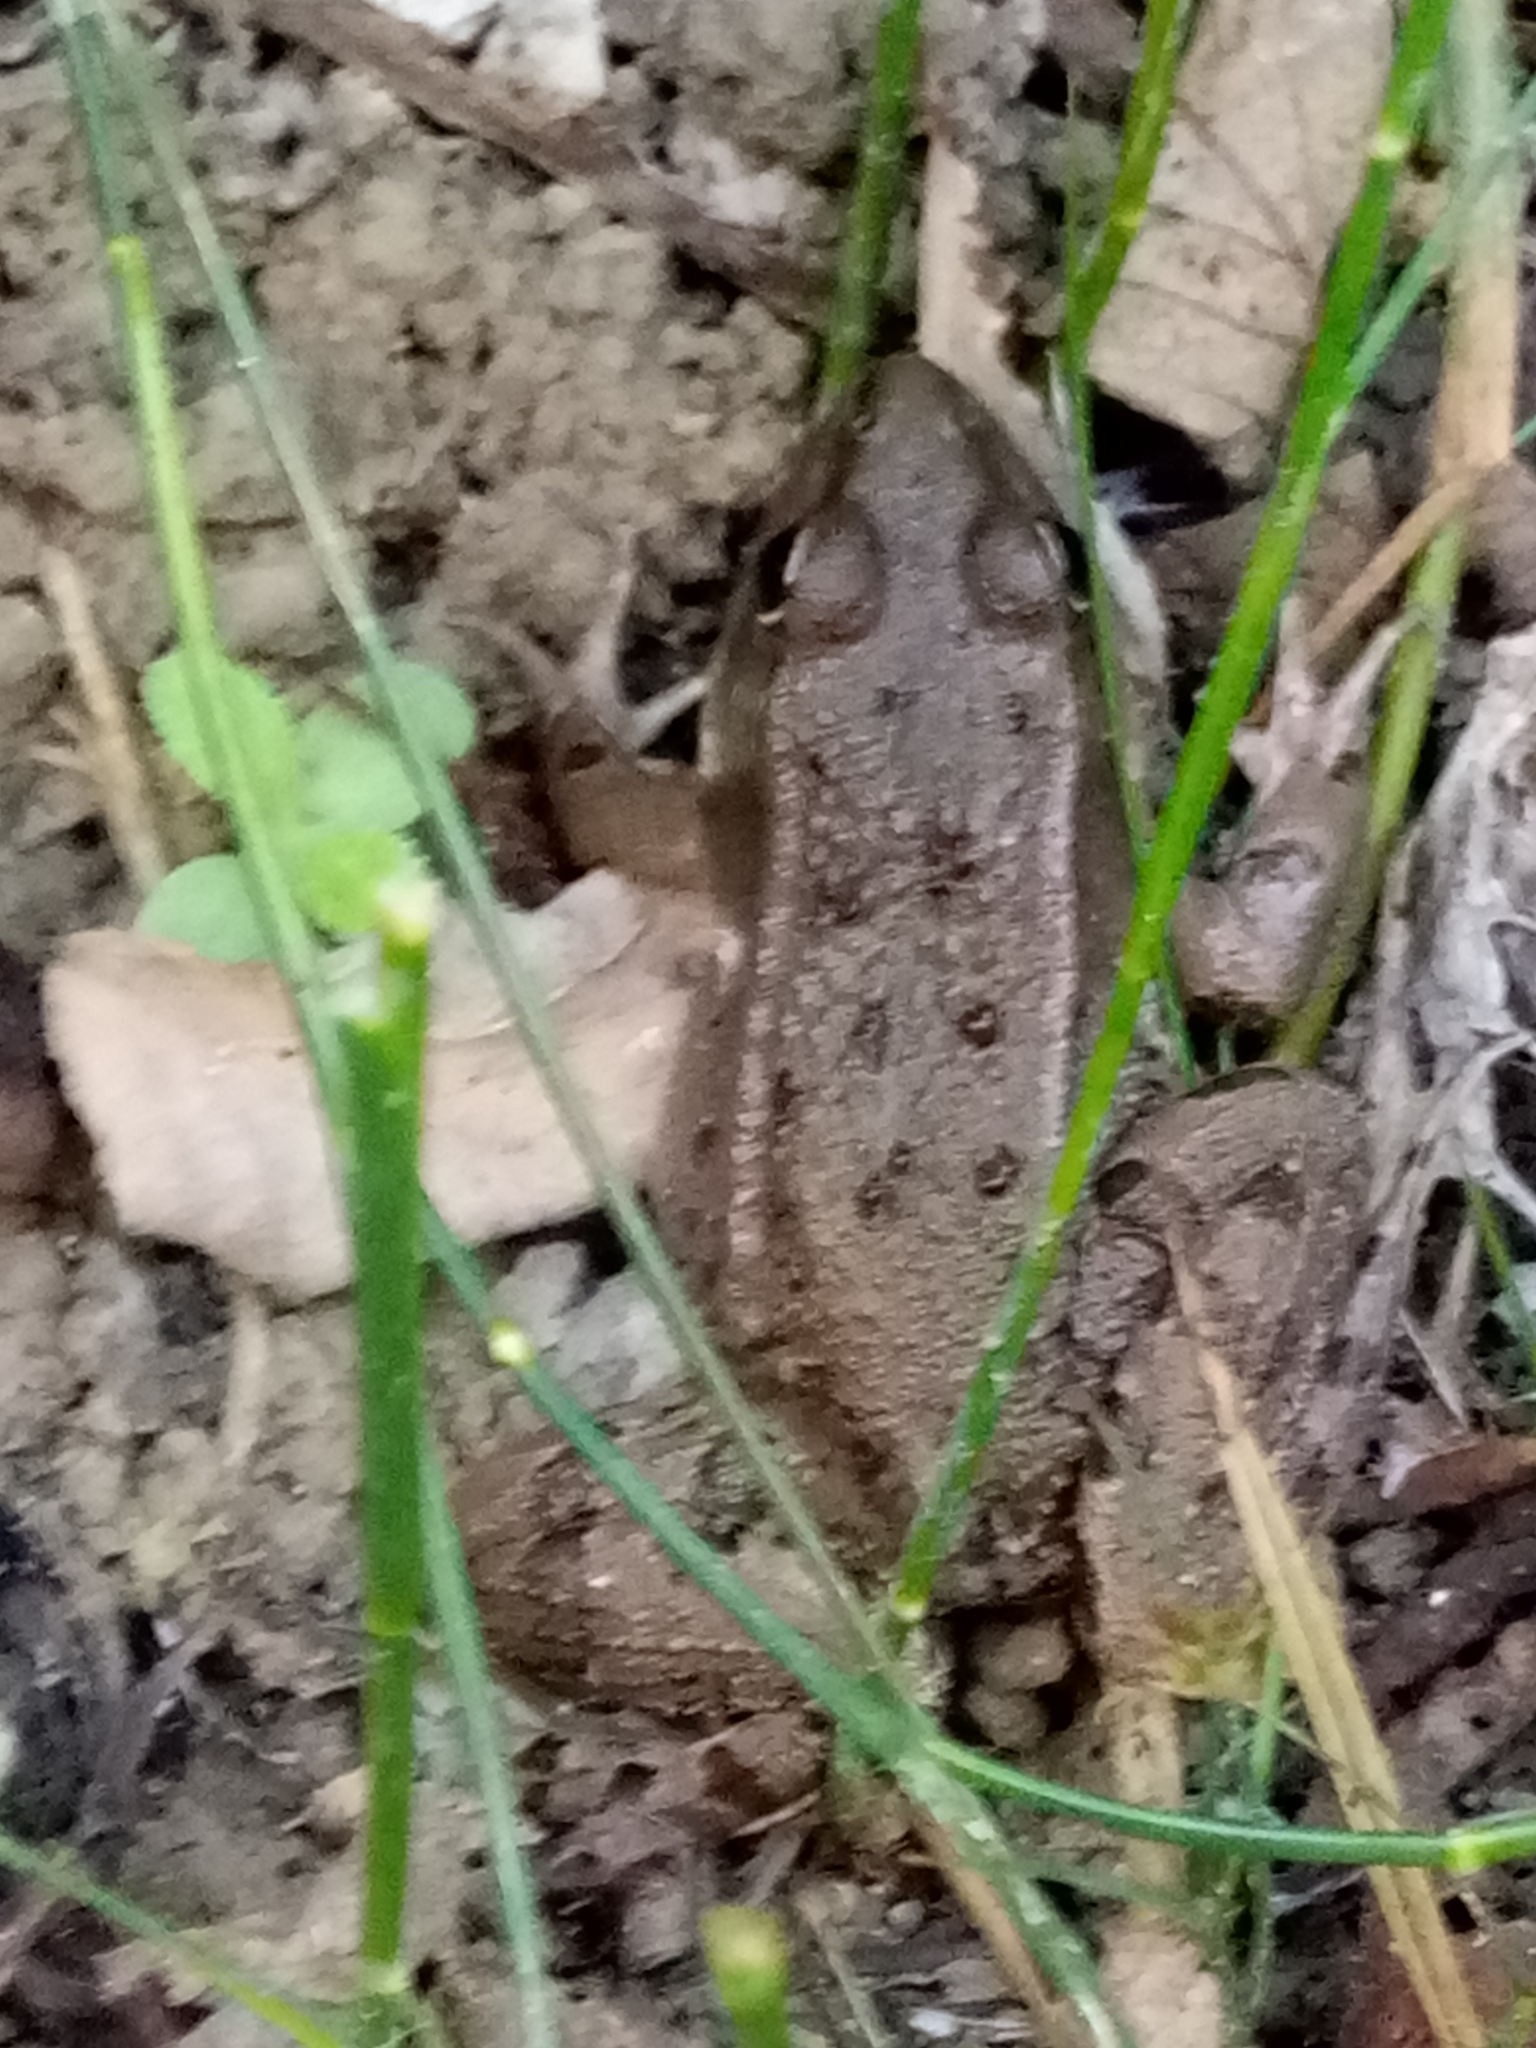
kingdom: Animalia
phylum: Chordata
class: Amphibia
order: Anura
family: Ranidae
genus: Pelophylax
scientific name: Pelophylax saharicus
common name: Sahara frog
